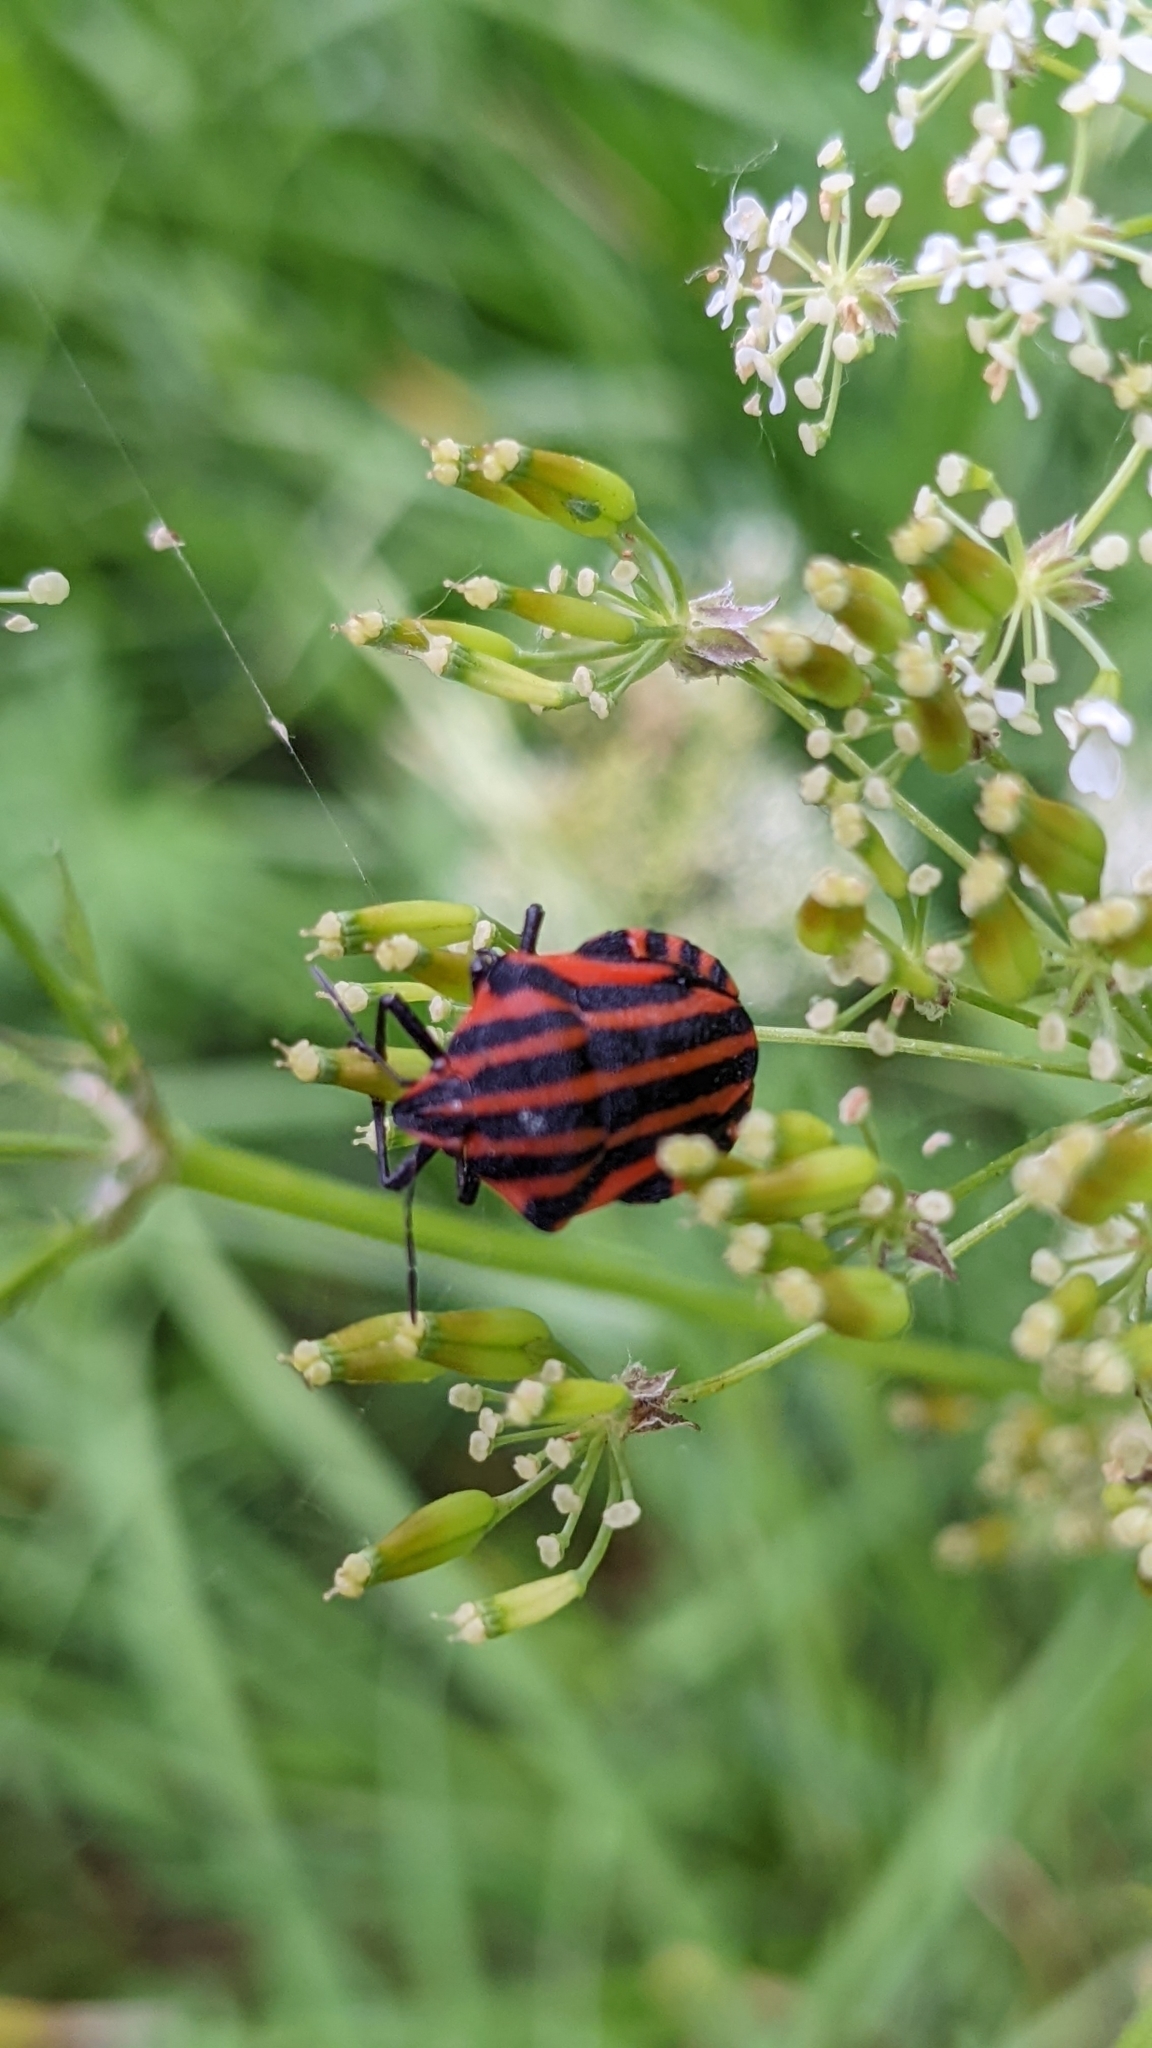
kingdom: Animalia
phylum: Arthropoda
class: Insecta
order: Hemiptera
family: Pentatomidae
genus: Graphosoma
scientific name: Graphosoma italicum
